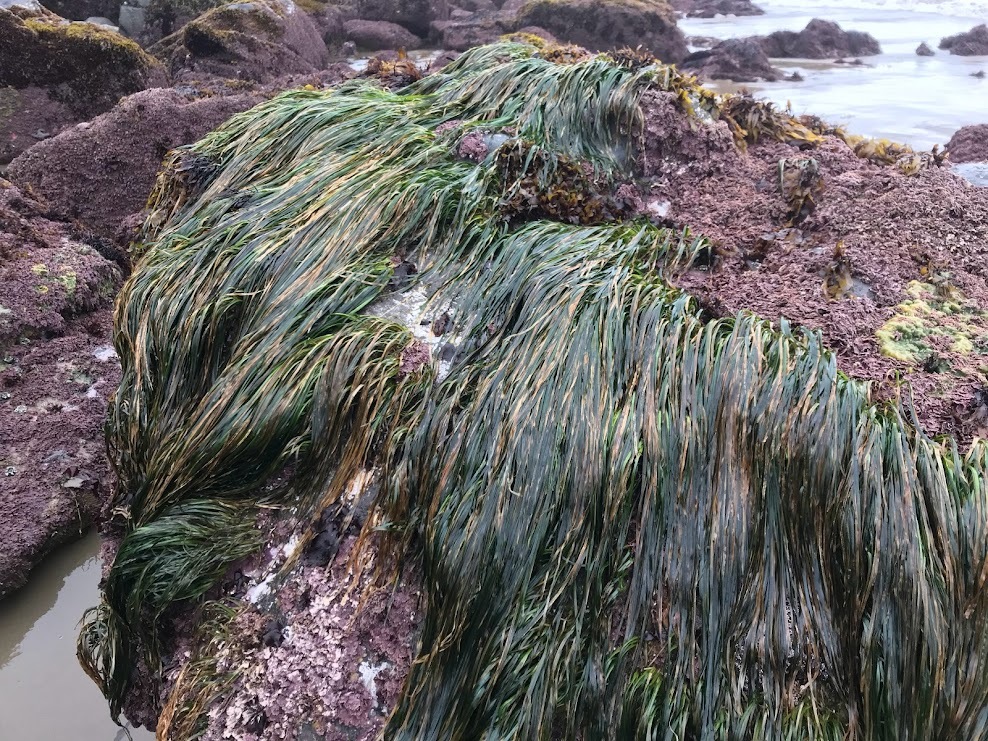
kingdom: Plantae
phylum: Tracheophyta
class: Liliopsida
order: Alismatales
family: Zosteraceae
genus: Phyllospadix
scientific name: Phyllospadix torreyi
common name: Surfgrass
